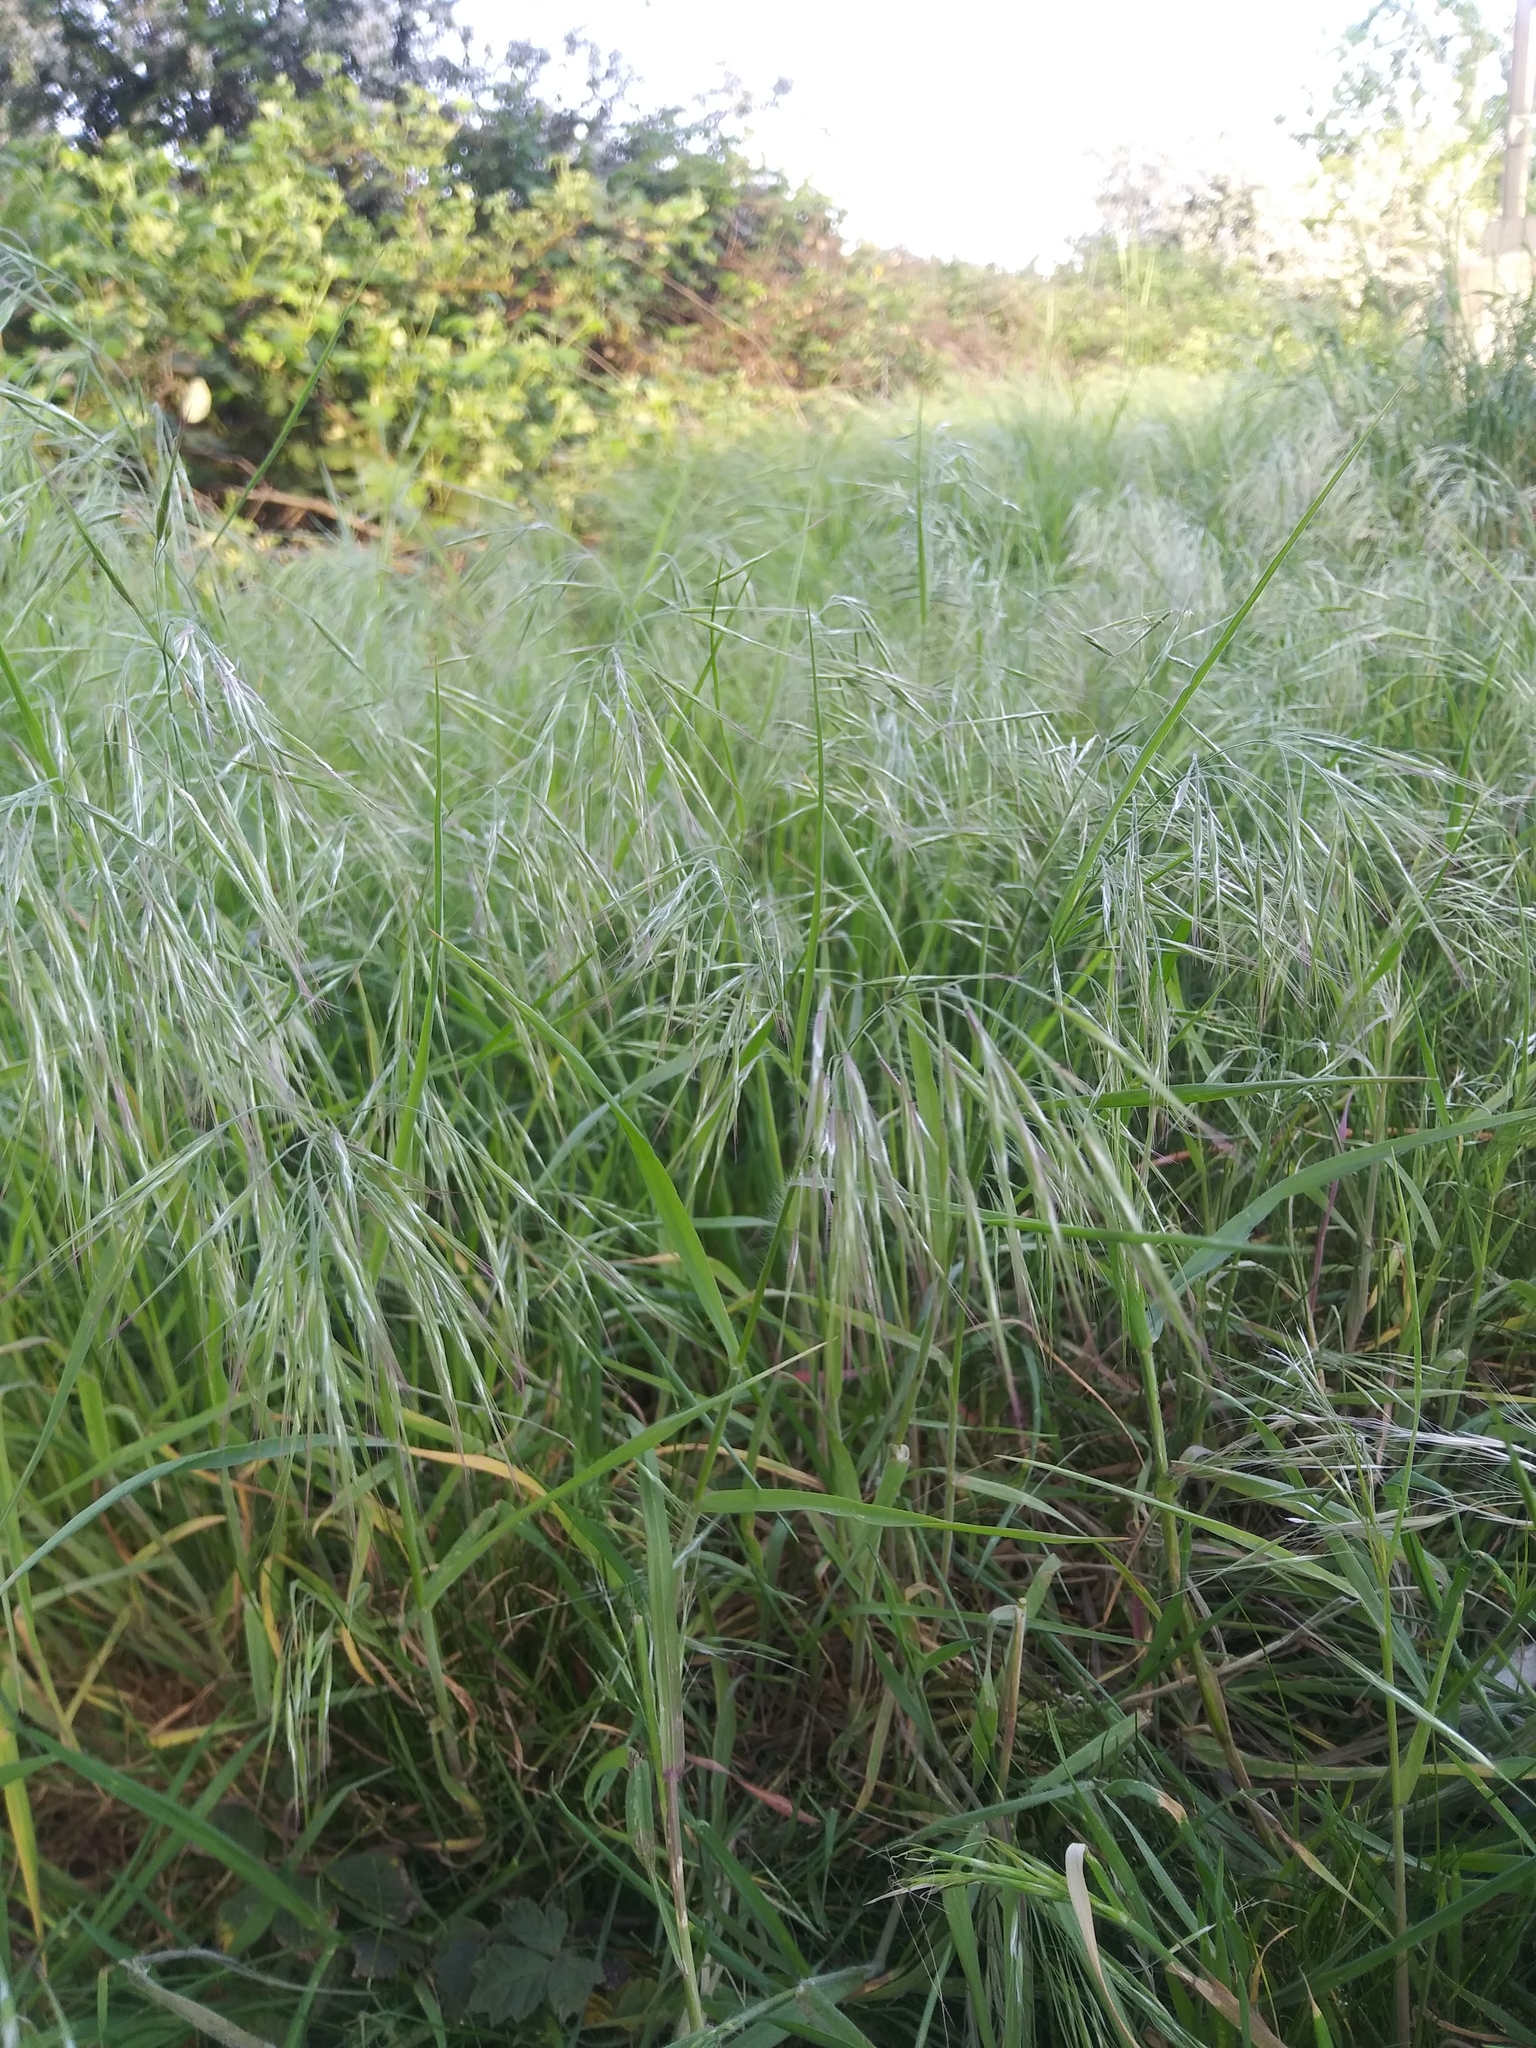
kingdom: Plantae
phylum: Tracheophyta
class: Liliopsida
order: Poales
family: Poaceae
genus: Bromus
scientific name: Bromus tectorum
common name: Cheatgrass
